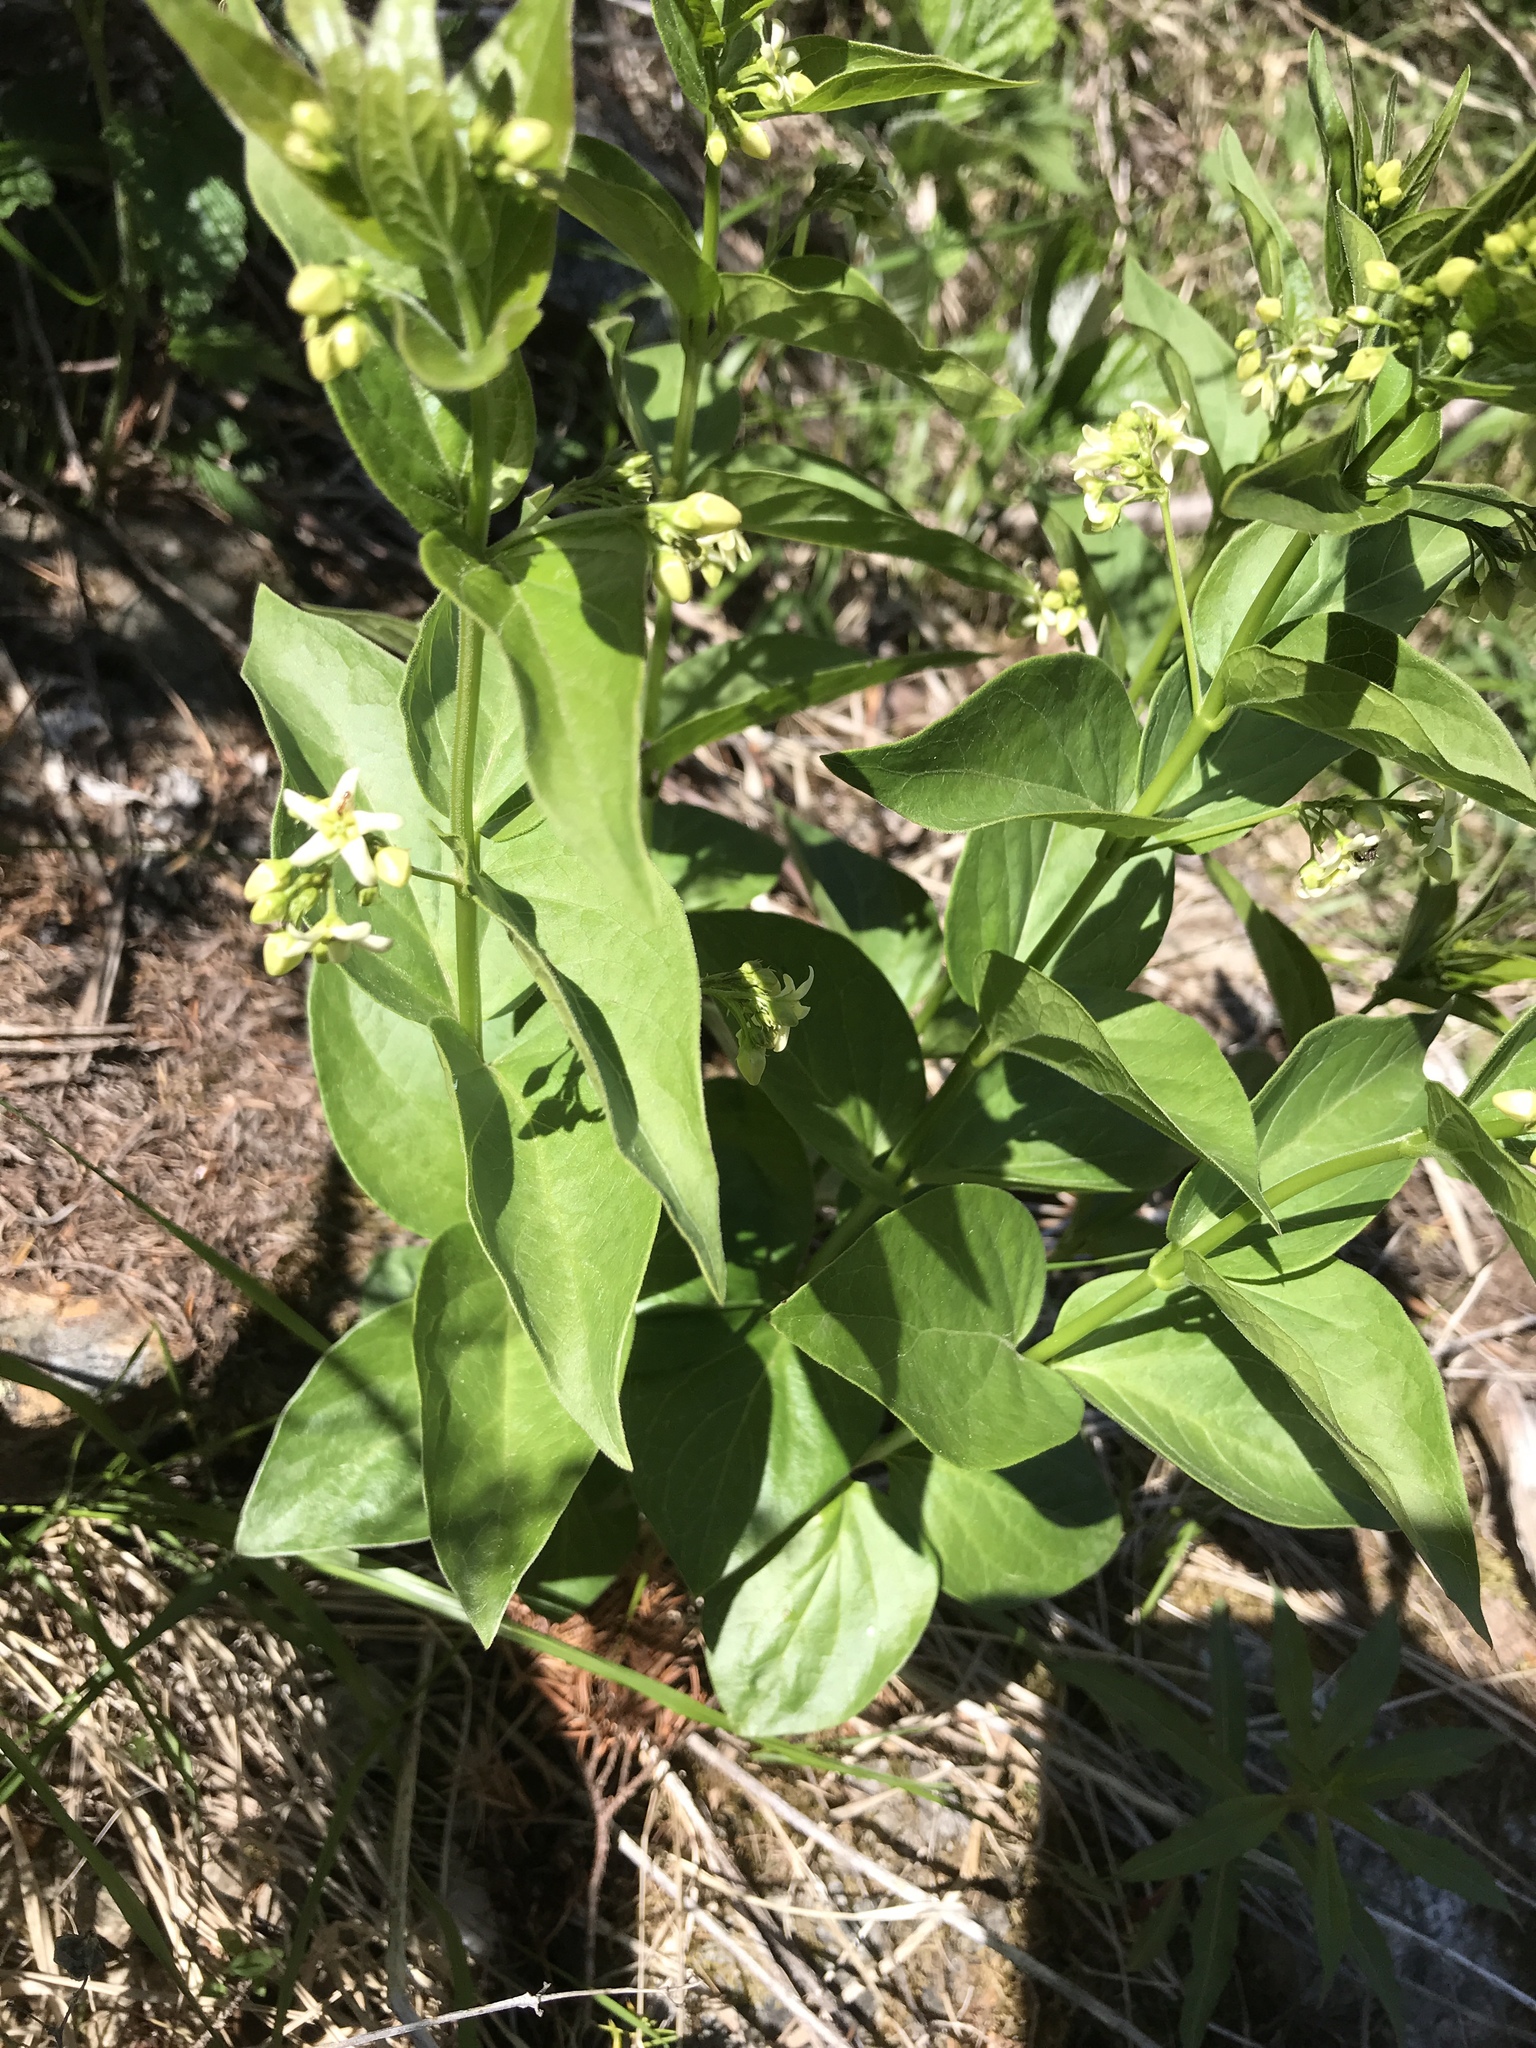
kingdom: Plantae
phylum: Tracheophyta
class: Magnoliopsida
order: Gentianales
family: Apocynaceae
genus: Vincetoxicum
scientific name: Vincetoxicum hirundinaria
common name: White swallowwort
